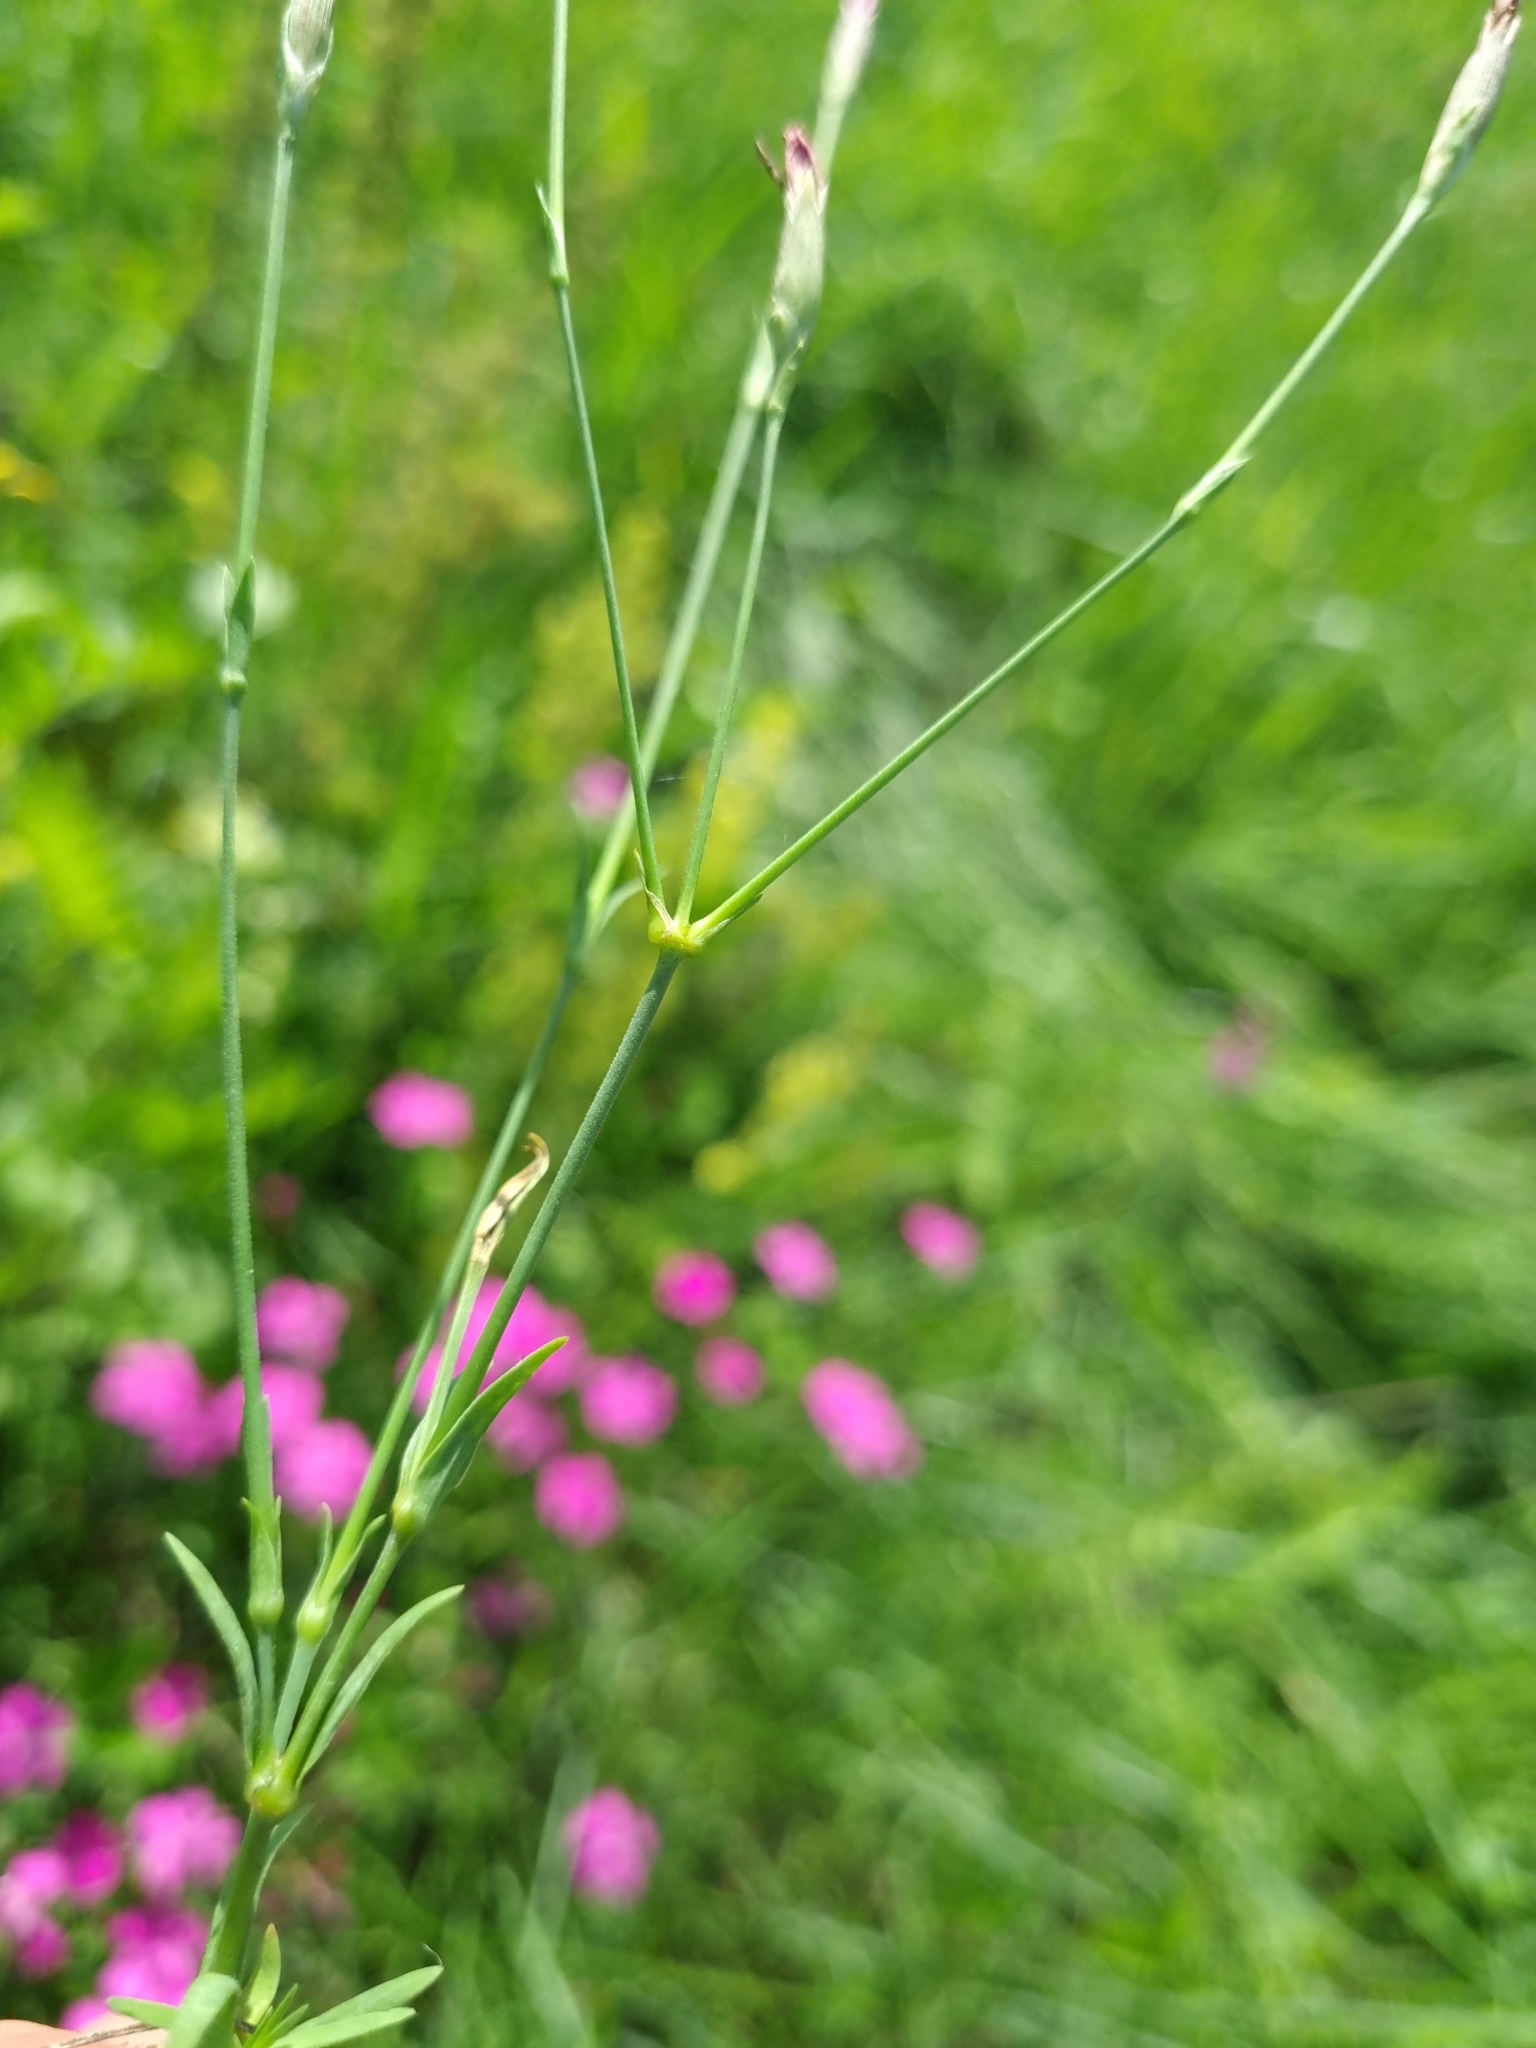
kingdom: Plantae
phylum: Tracheophyta
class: Magnoliopsida
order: Caryophyllales
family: Caryophyllaceae
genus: Dianthus
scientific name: Dianthus deltoides
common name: Maiden pink
